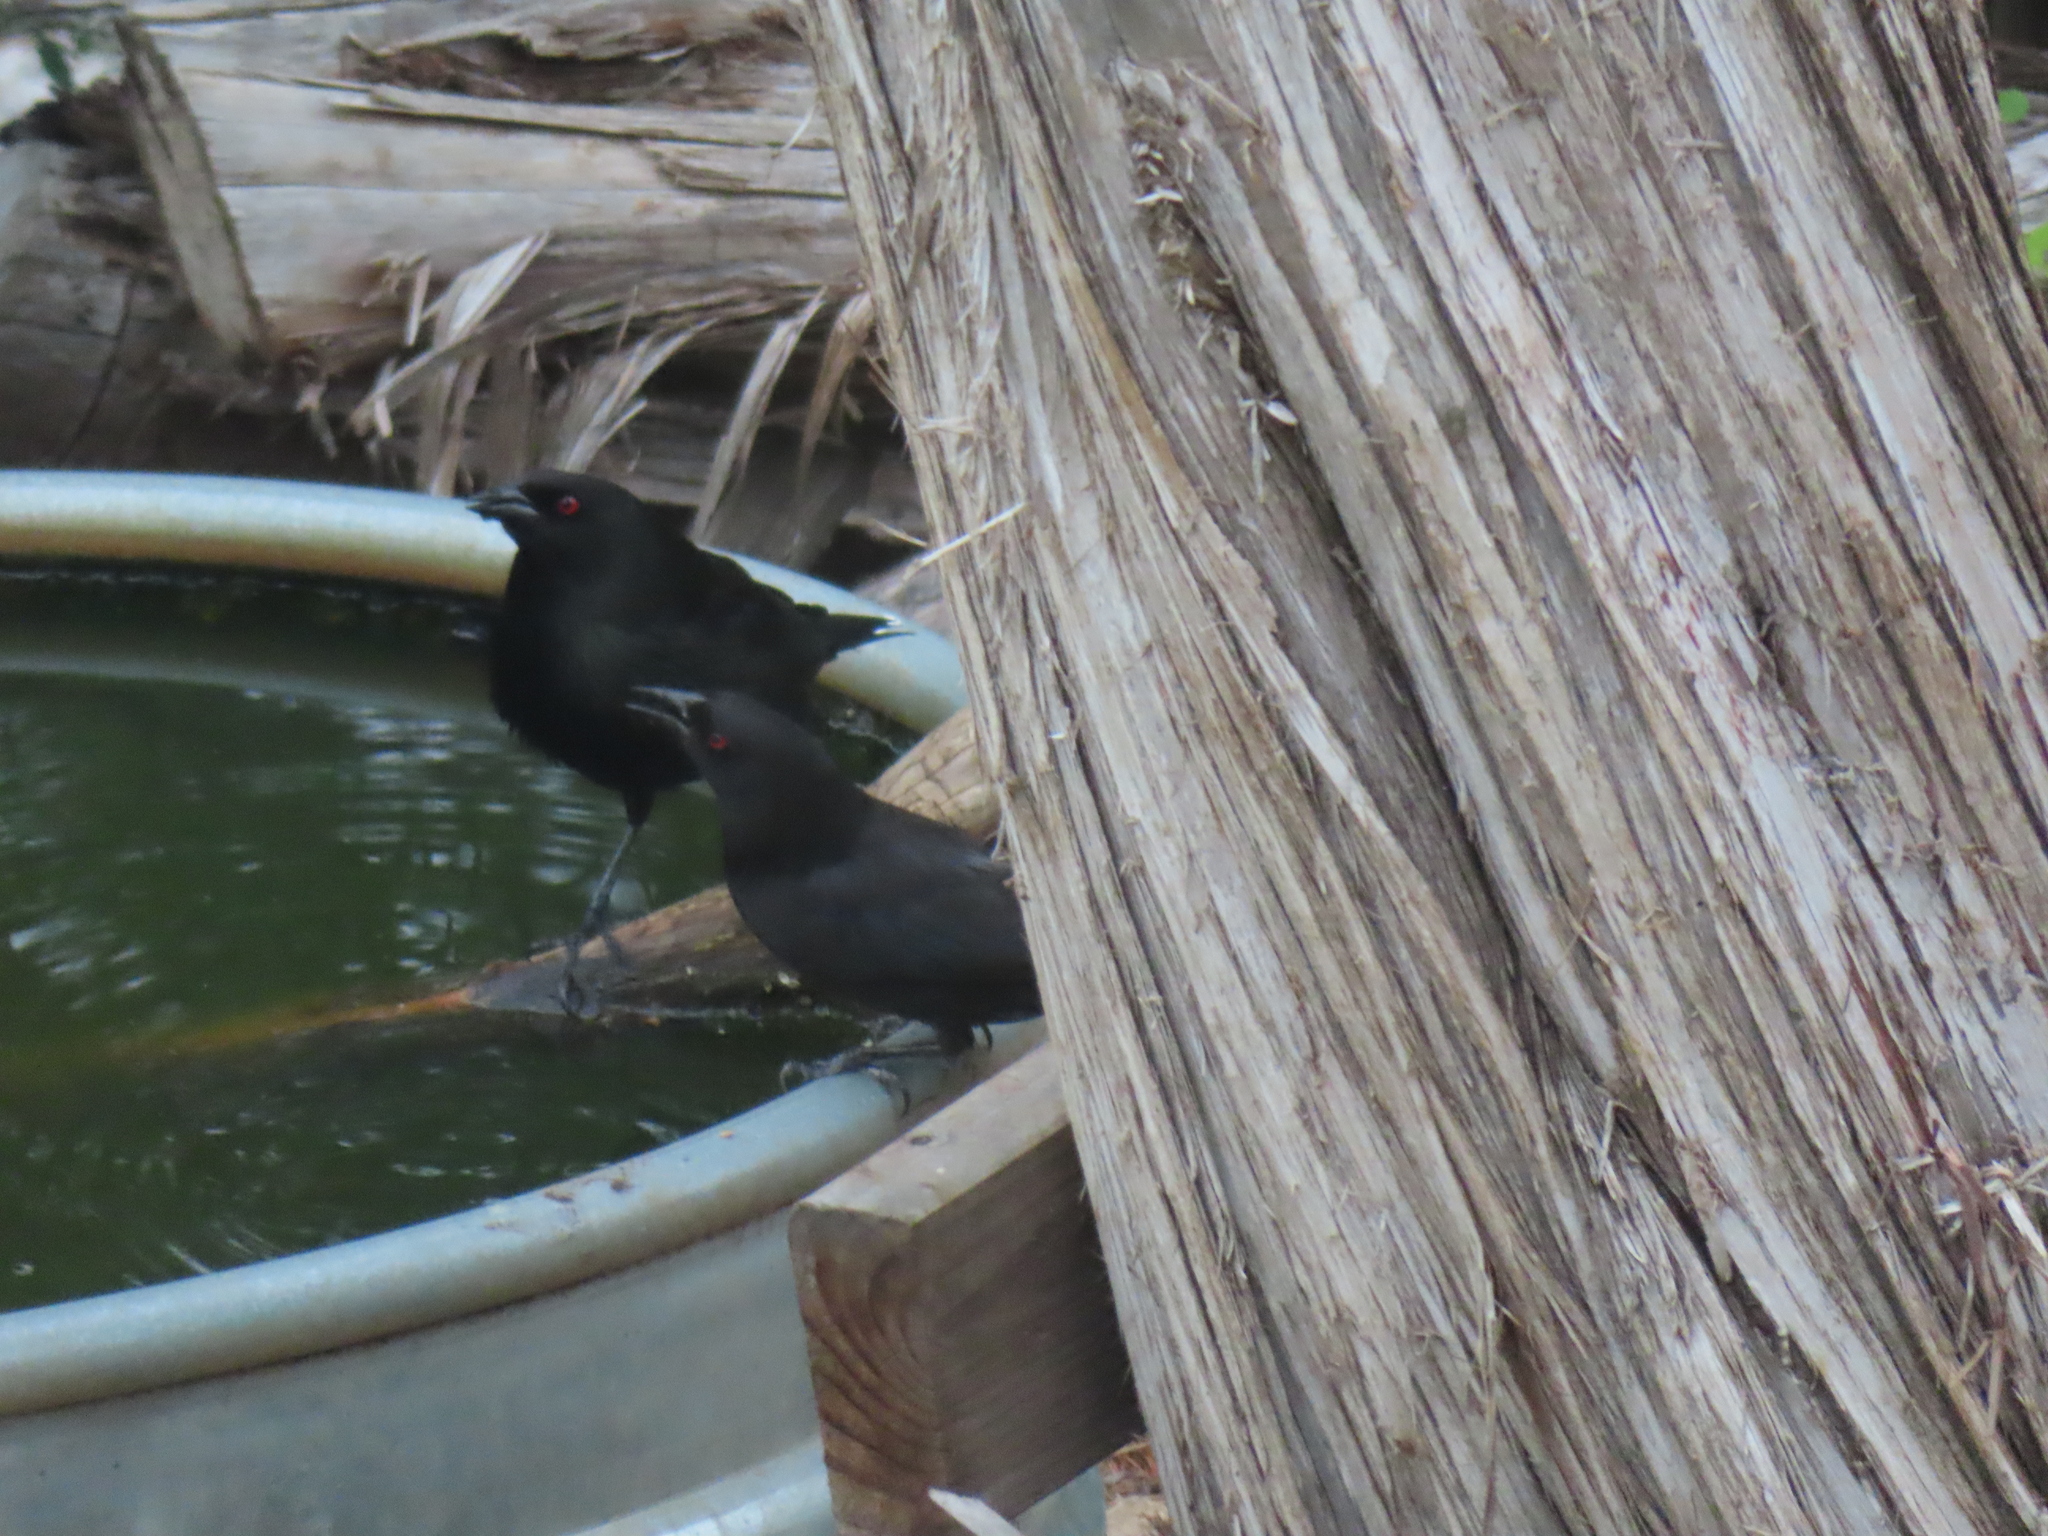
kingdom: Animalia
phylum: Chordata
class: Aves
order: Passeriformes
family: Icteridae
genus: Molothrus
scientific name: Molothrus aeneus
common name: Bronzed cowbird
